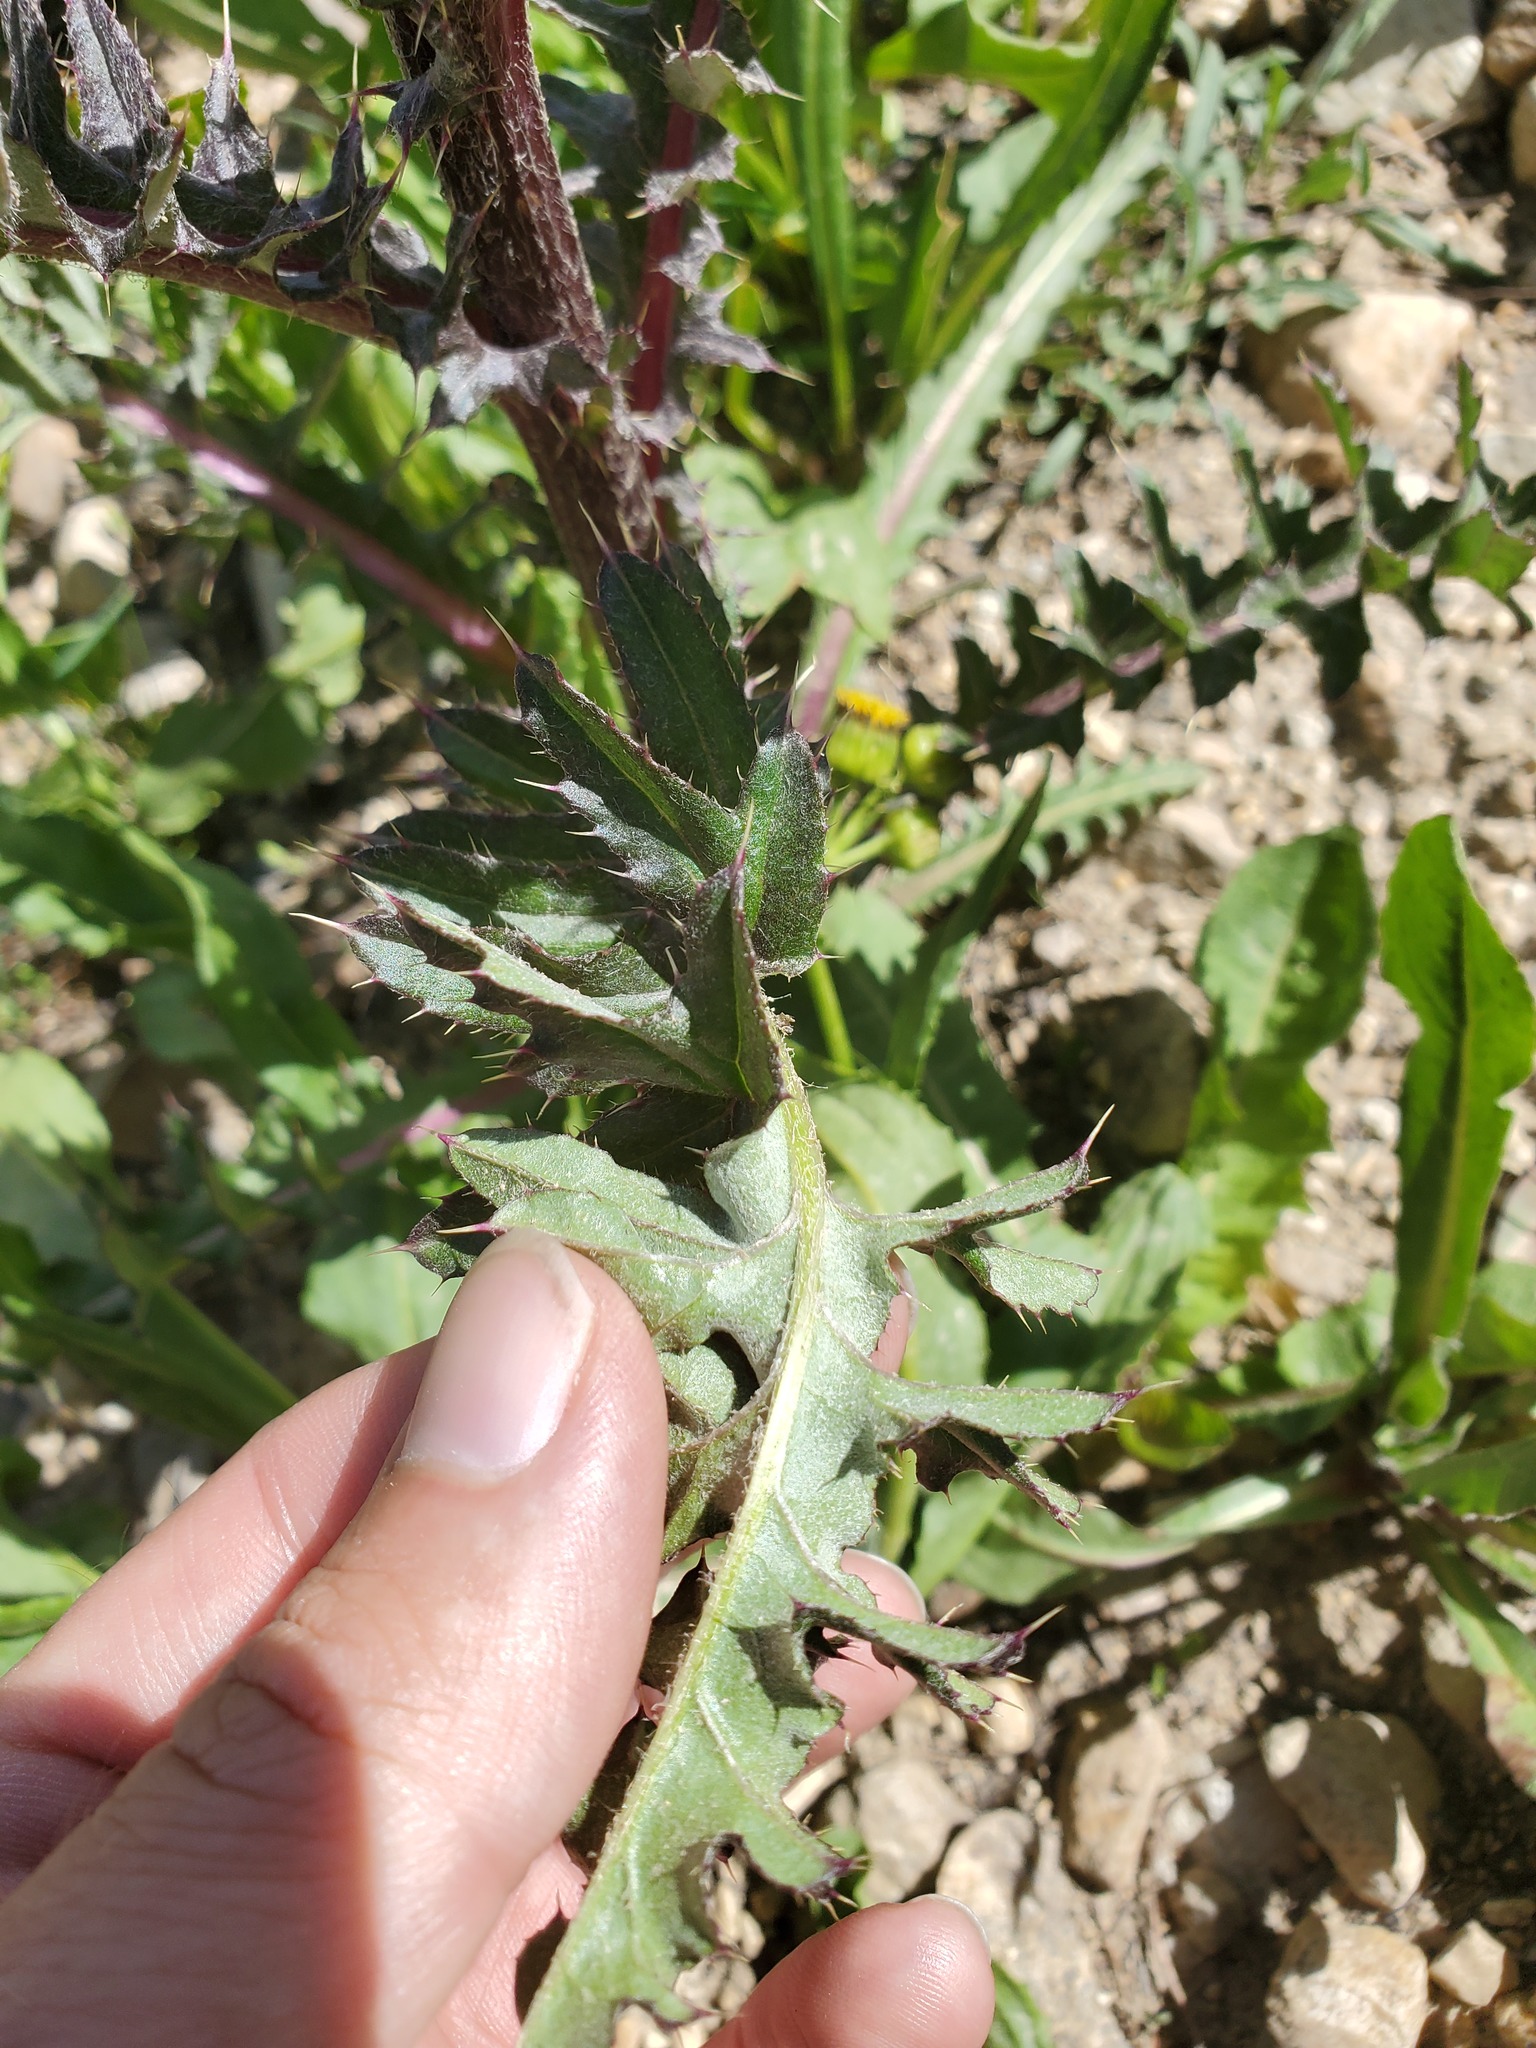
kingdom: Plantae
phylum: Tracheophyta
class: Magnoliopsida
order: Asterales
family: Asteraceae
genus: Cirsium
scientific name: Cirsium griseum
